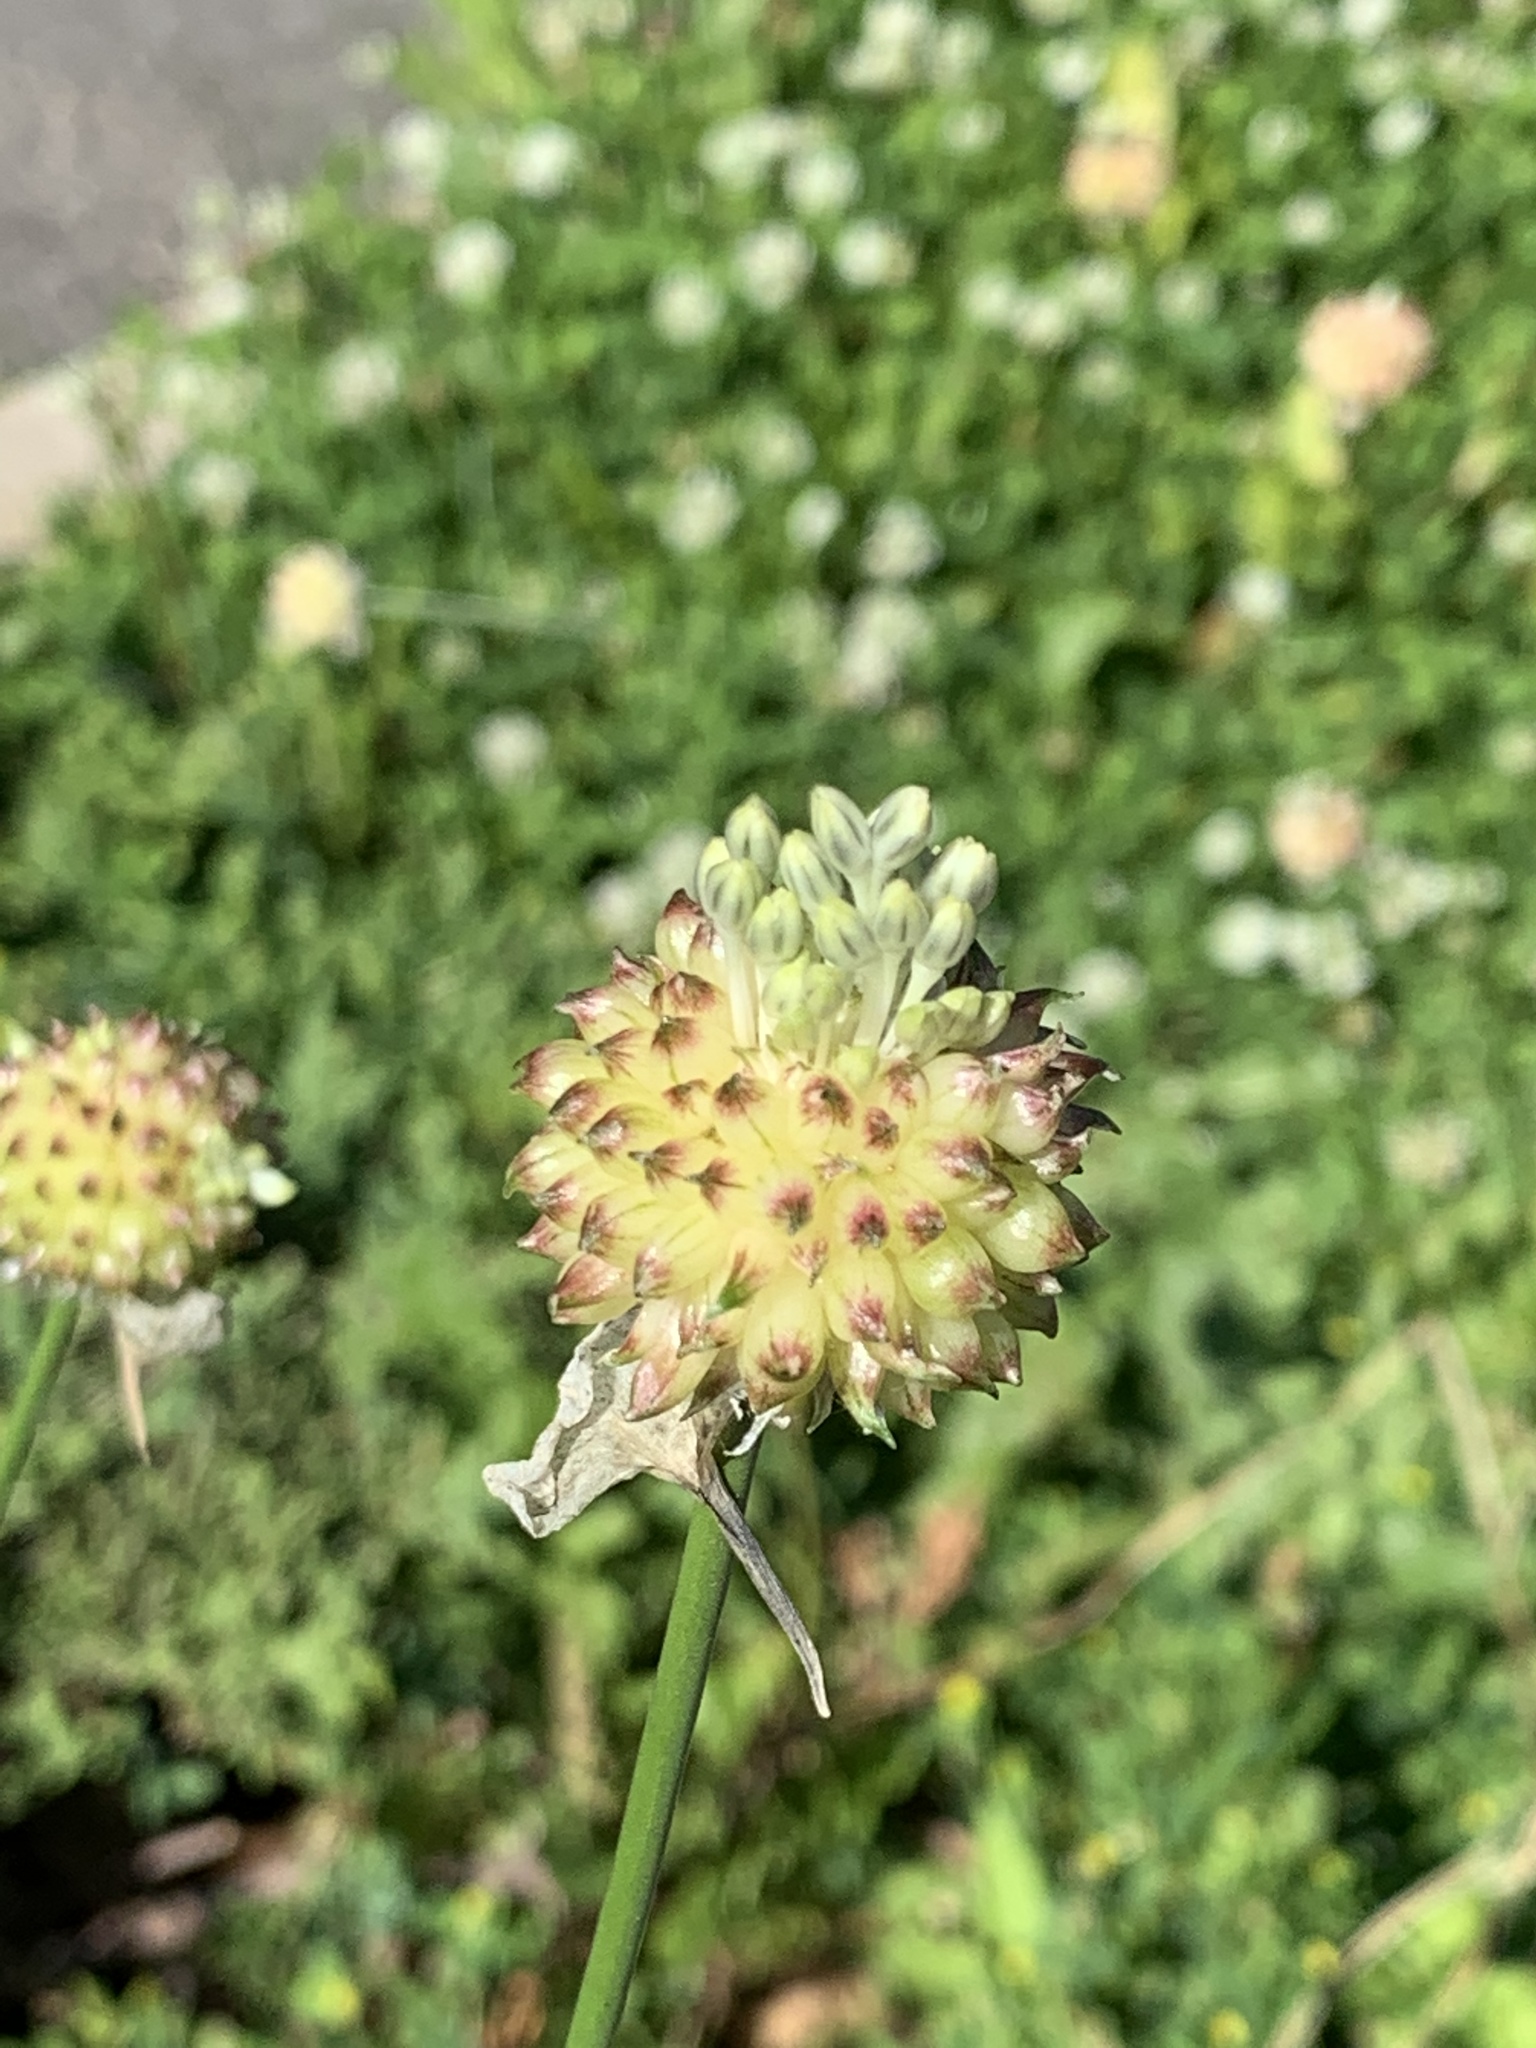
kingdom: Plantae
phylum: Tracheophyta
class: Liliopsida
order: Asparagales
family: Amaryllidaceae
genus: Allium
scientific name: Allium vineale
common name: Crow garlic
